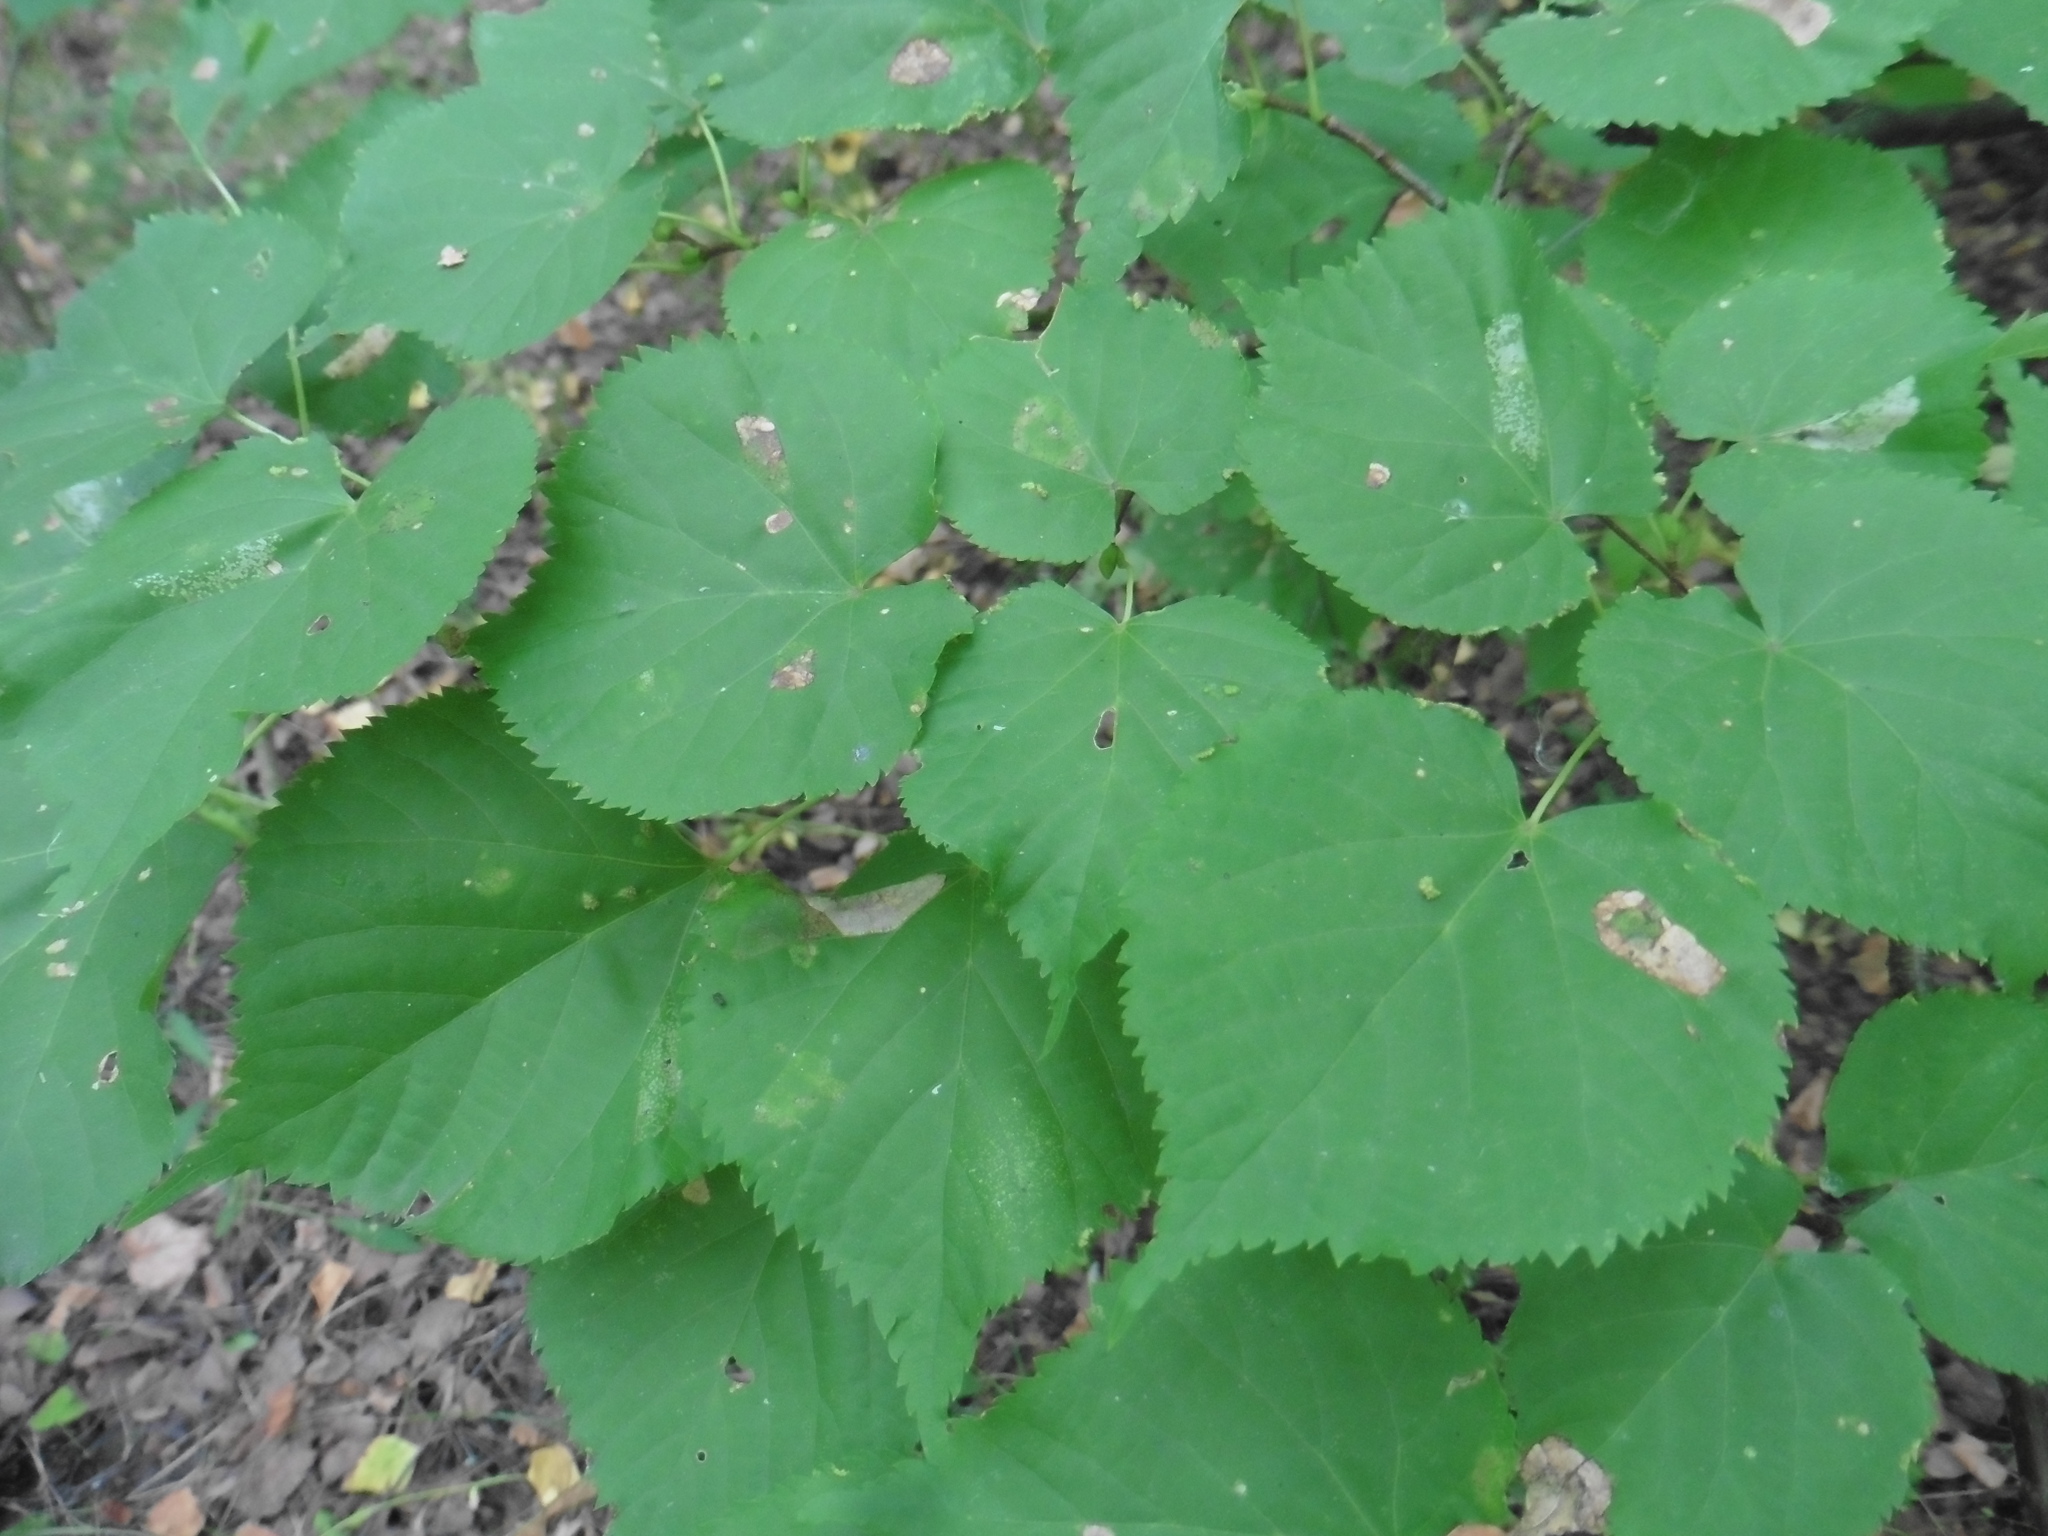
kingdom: Plantae
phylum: Tracheophyta
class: Magnoliopsida
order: Malvales
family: Malvaceae
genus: Tilia
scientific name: Tilia cordata
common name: Small-leaved lime
